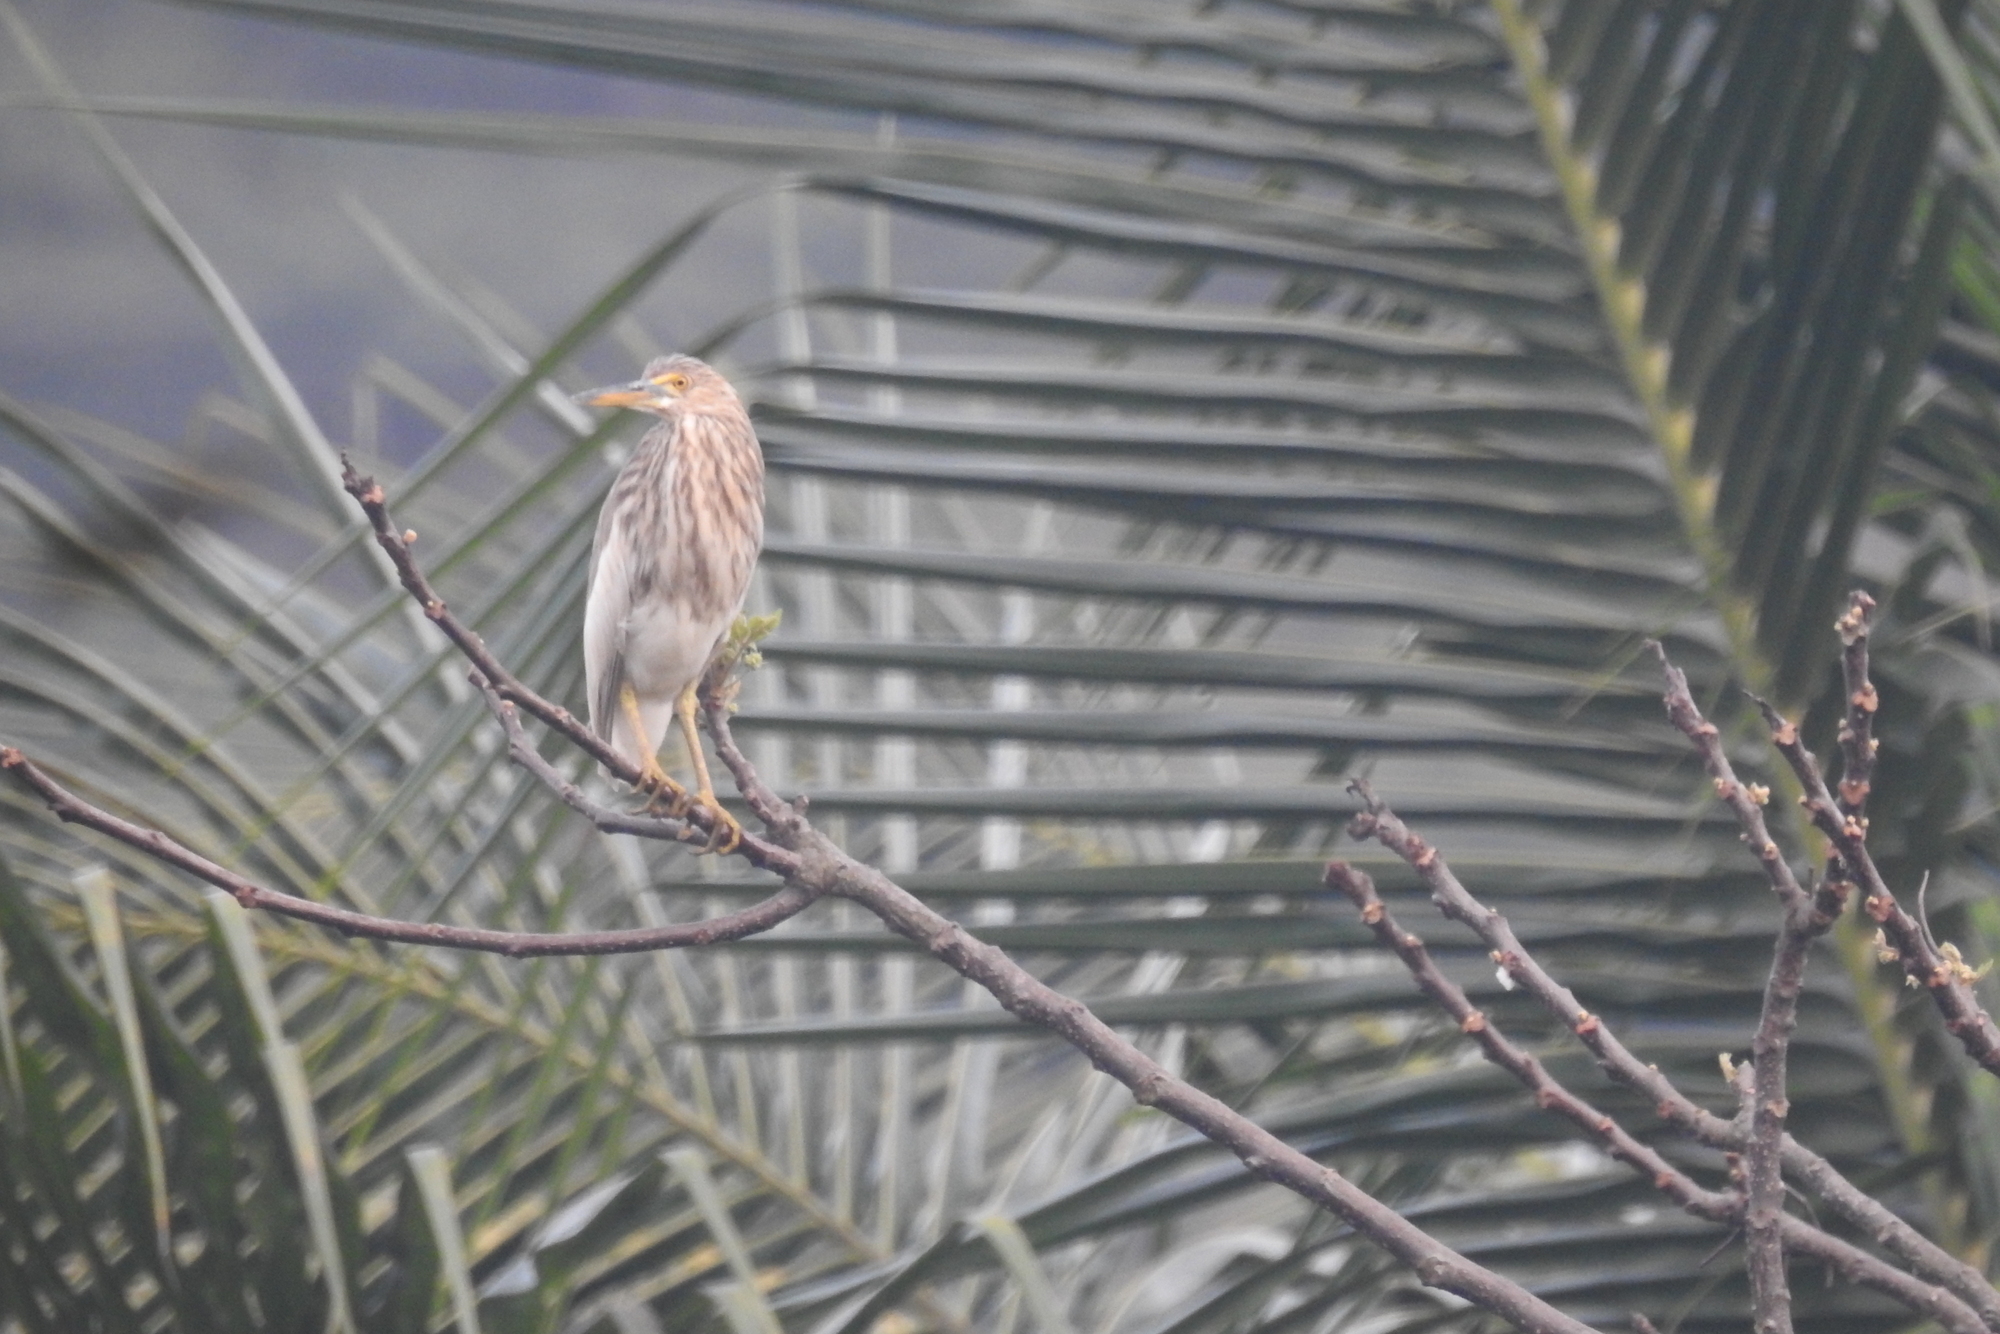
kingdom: Animalia
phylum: Chordata
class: Aves
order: Pelecaniformes
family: Ardeidae
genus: Ardeola
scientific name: Ardeola grayii
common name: Indian pond heron
